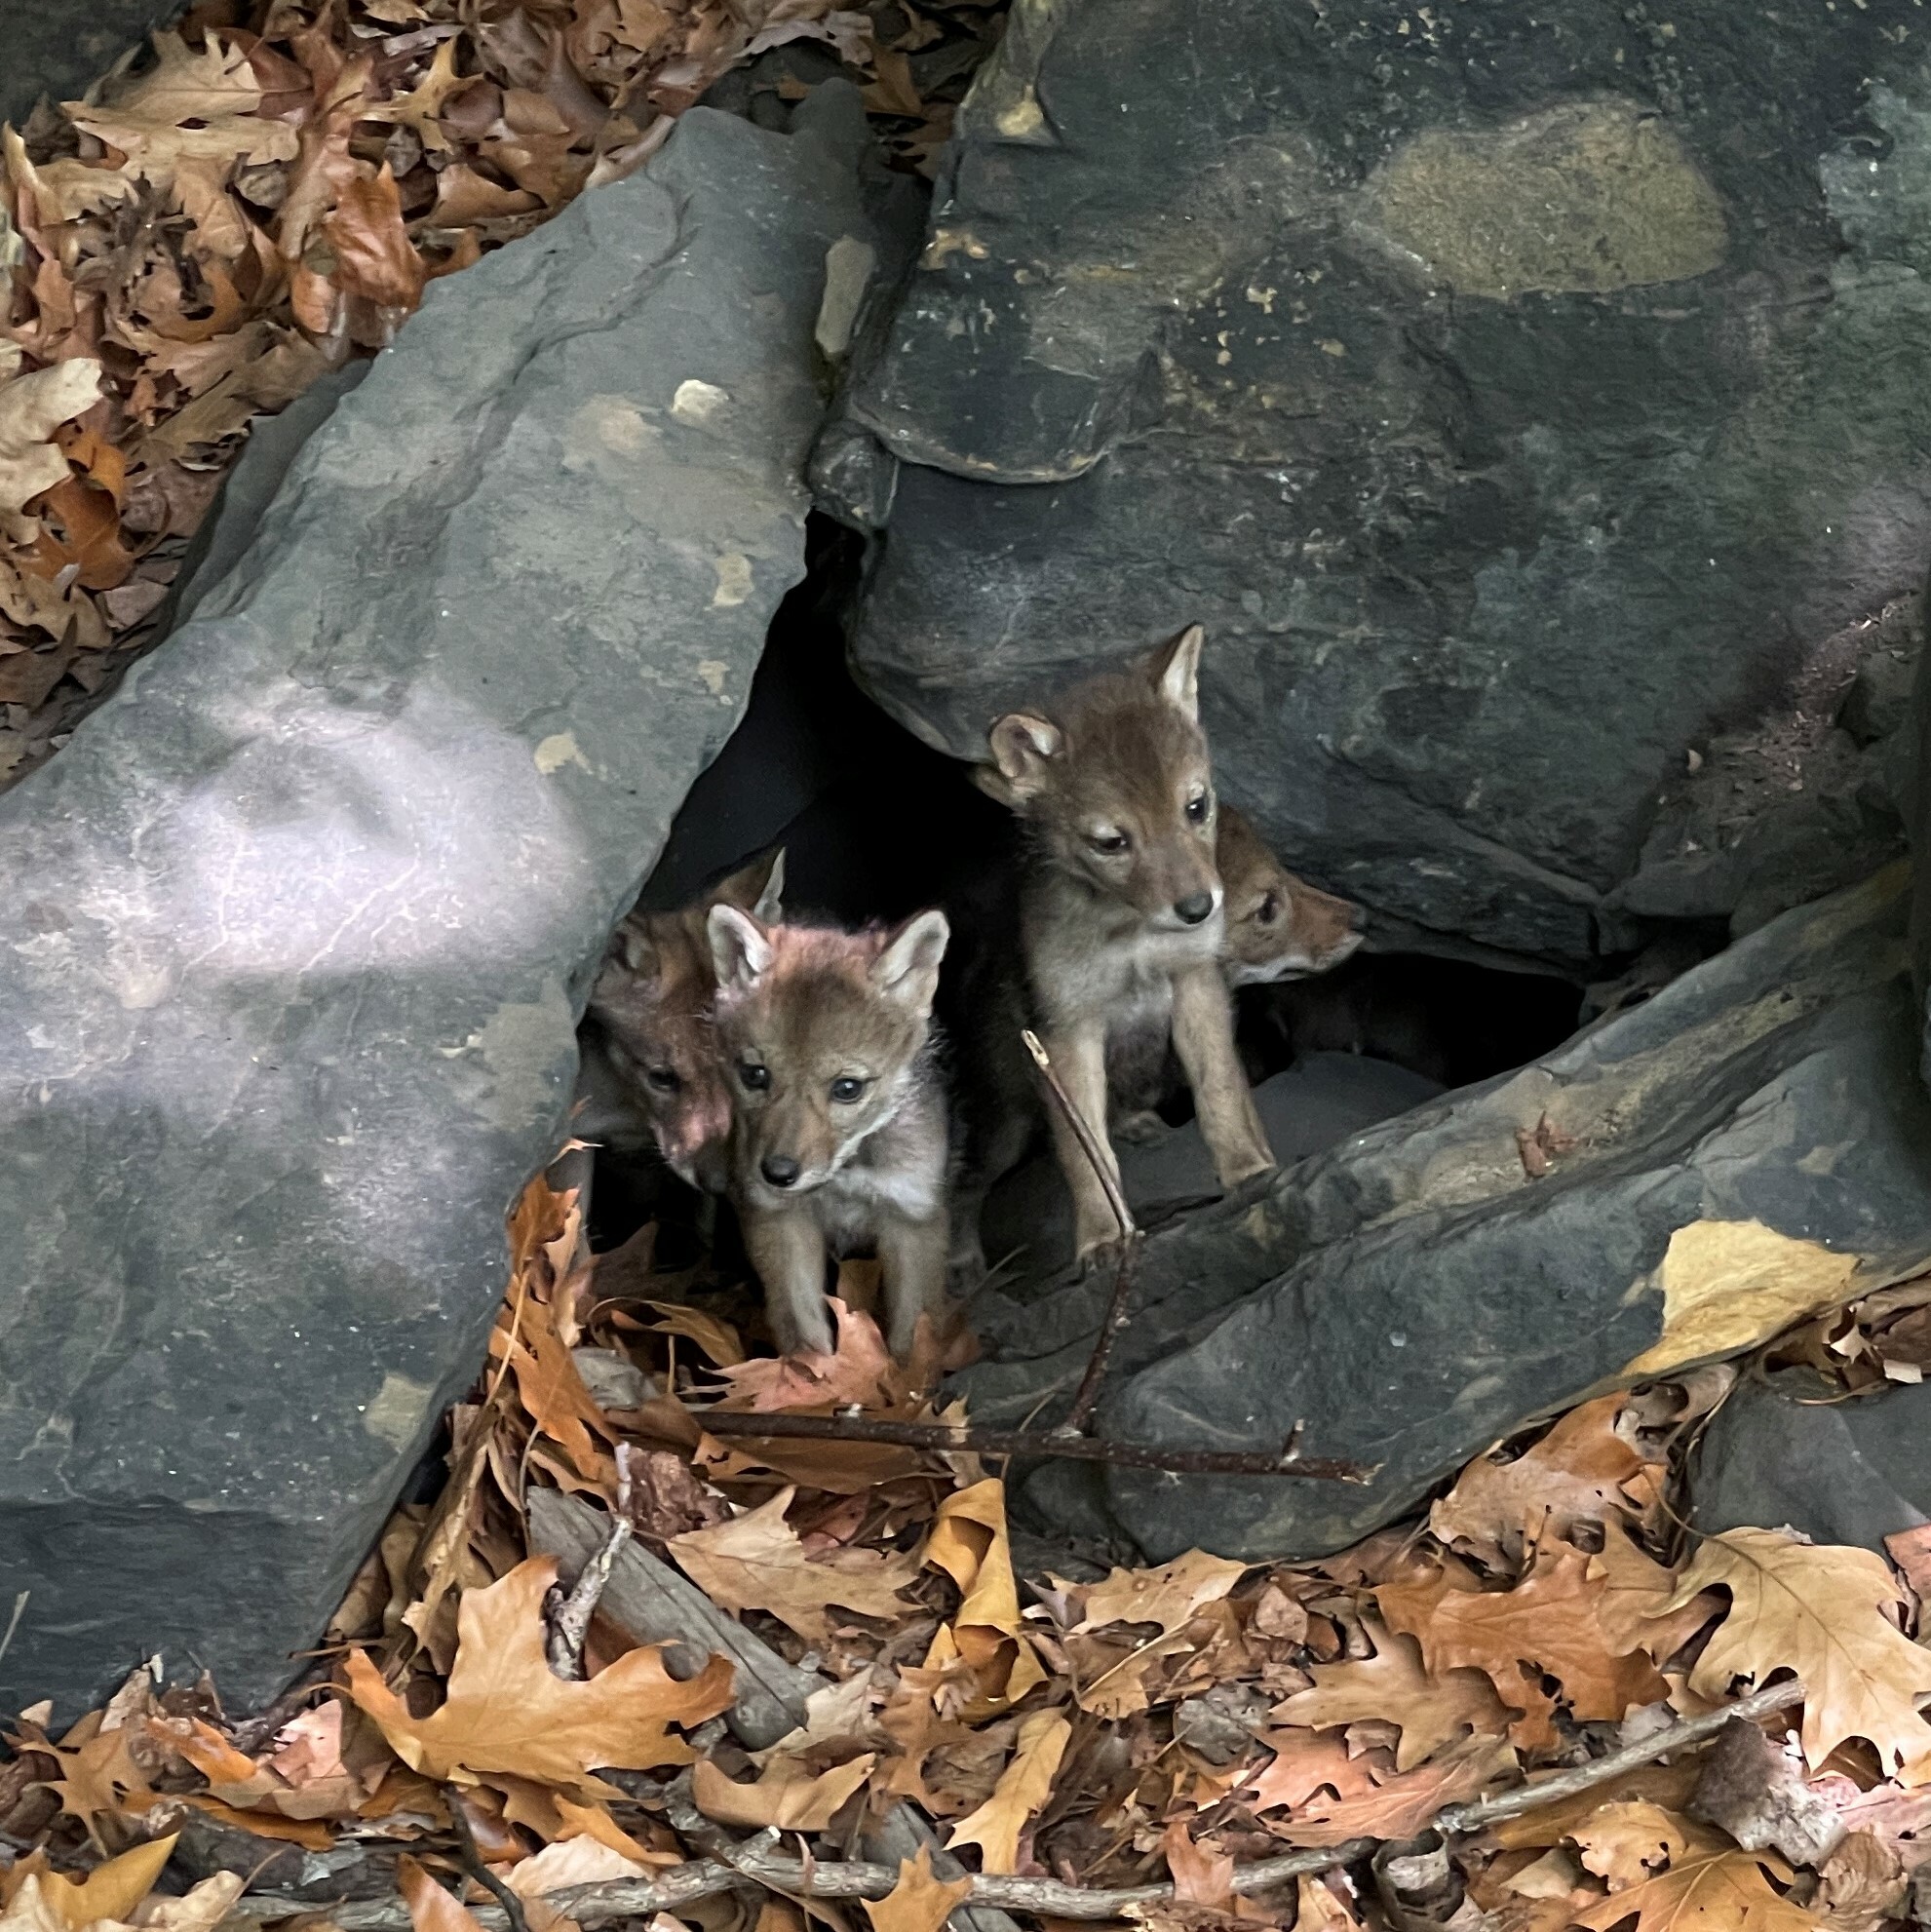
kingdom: Animalia
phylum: Chordata
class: Mammalia
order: Carnivora
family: Canidae
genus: Canis
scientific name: Canis latrans
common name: Coyote
